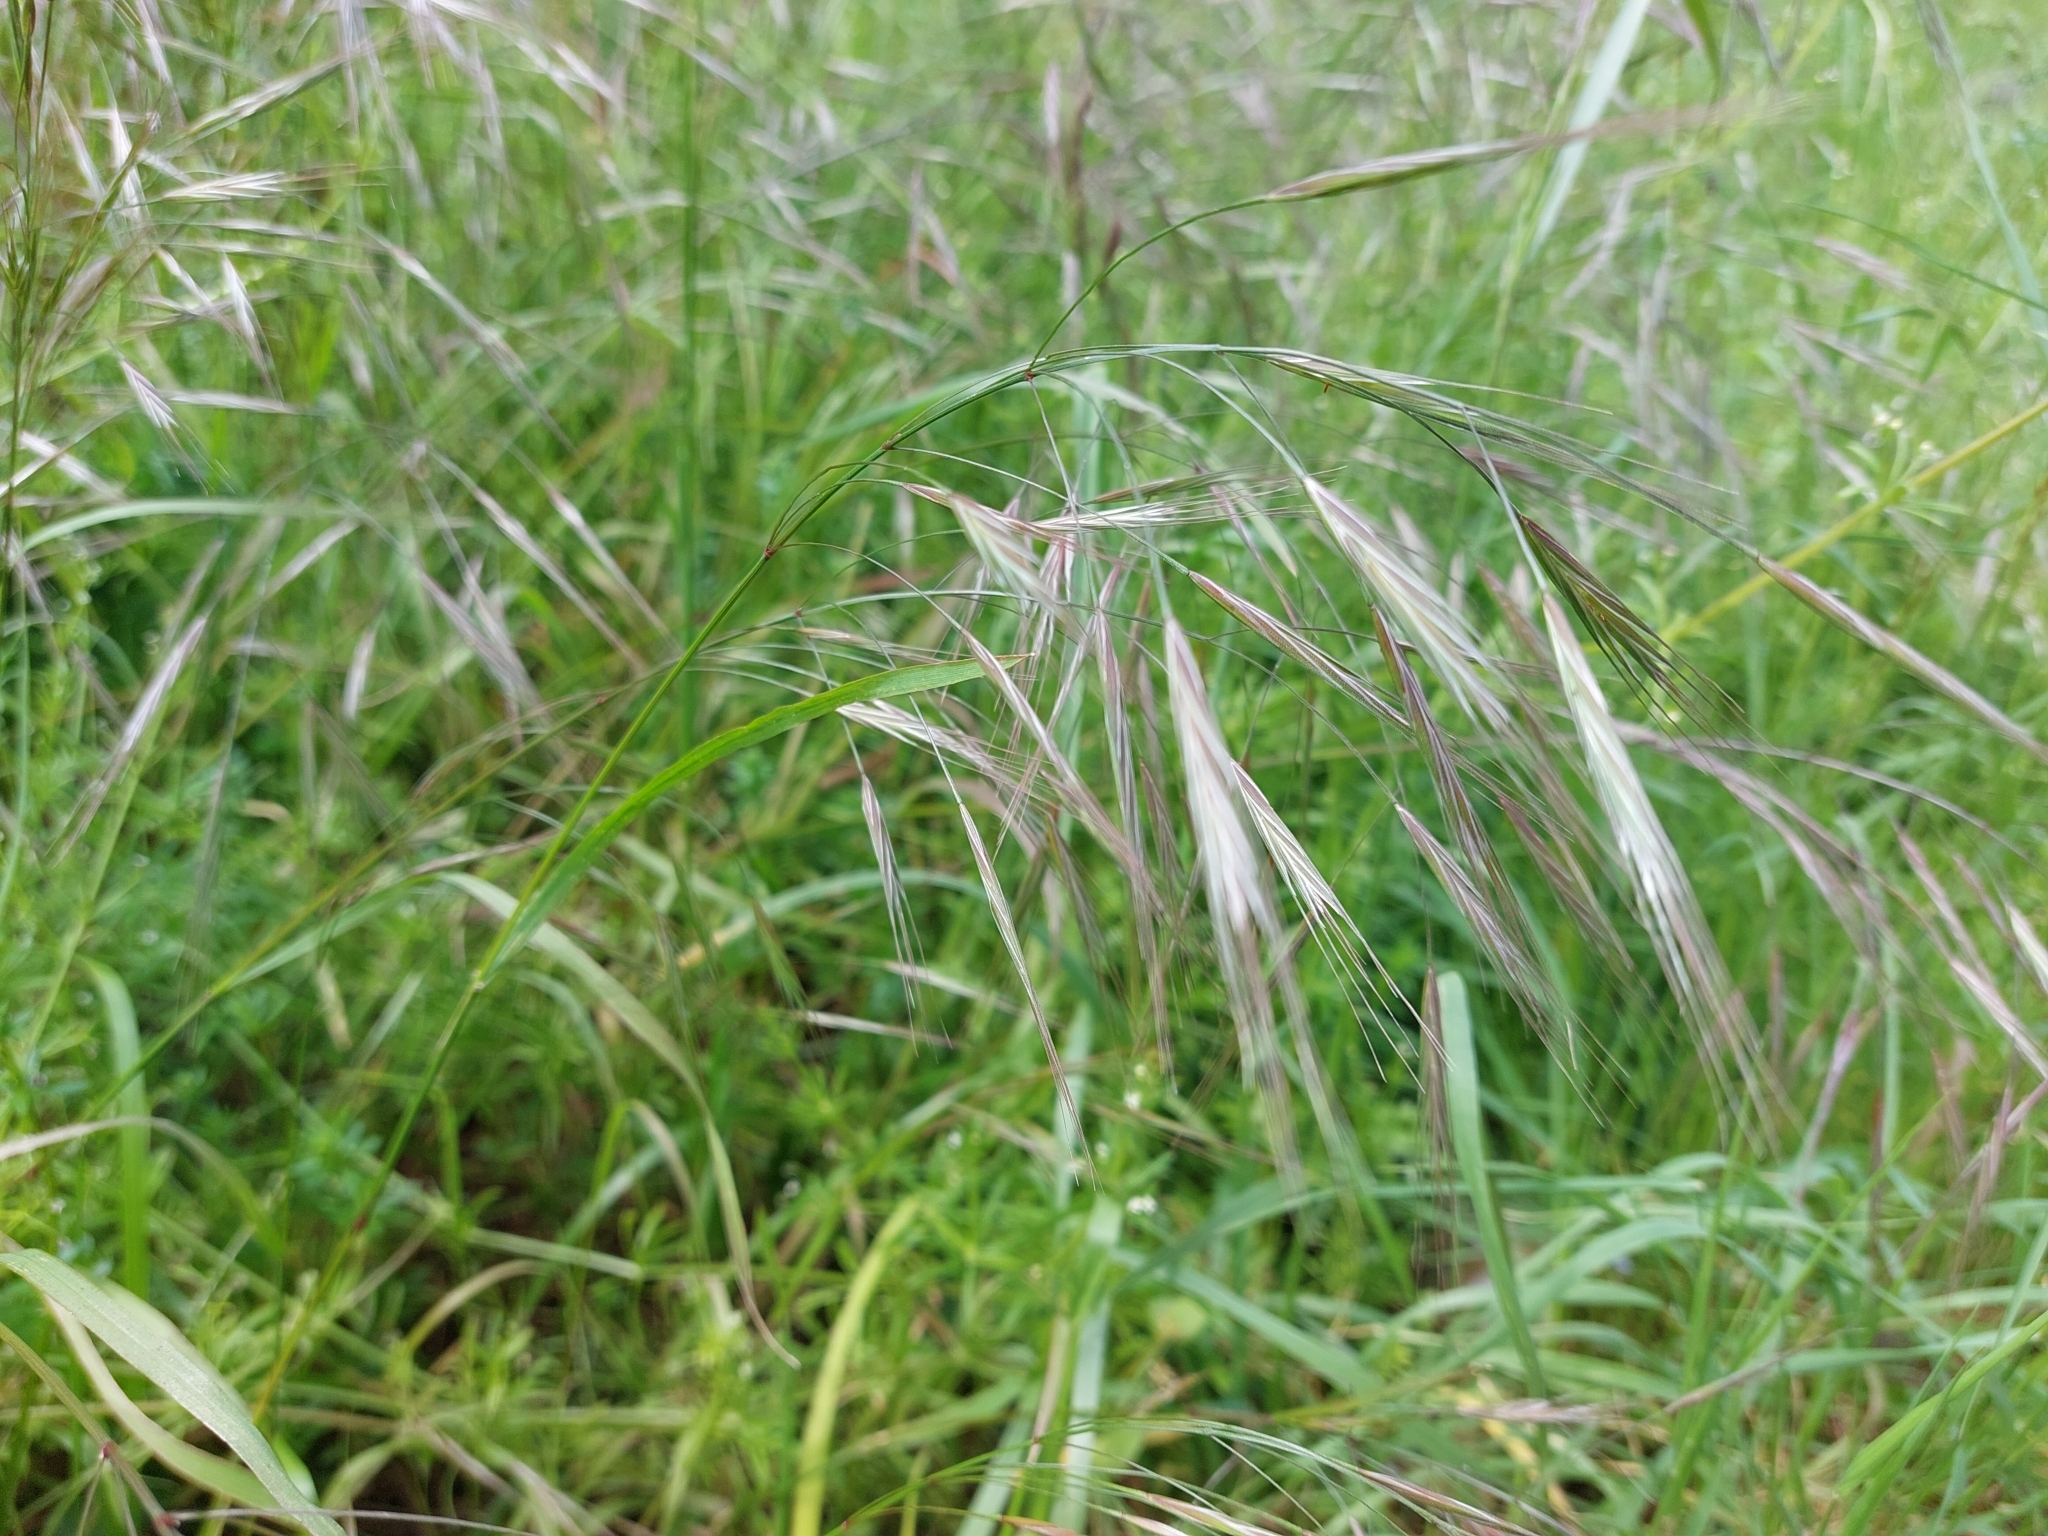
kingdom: Plantae
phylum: Tracheophyta
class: Liliopsida
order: Poales
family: Poaceae
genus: Bromus
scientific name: Bromus sterilis
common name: Poverty brome
